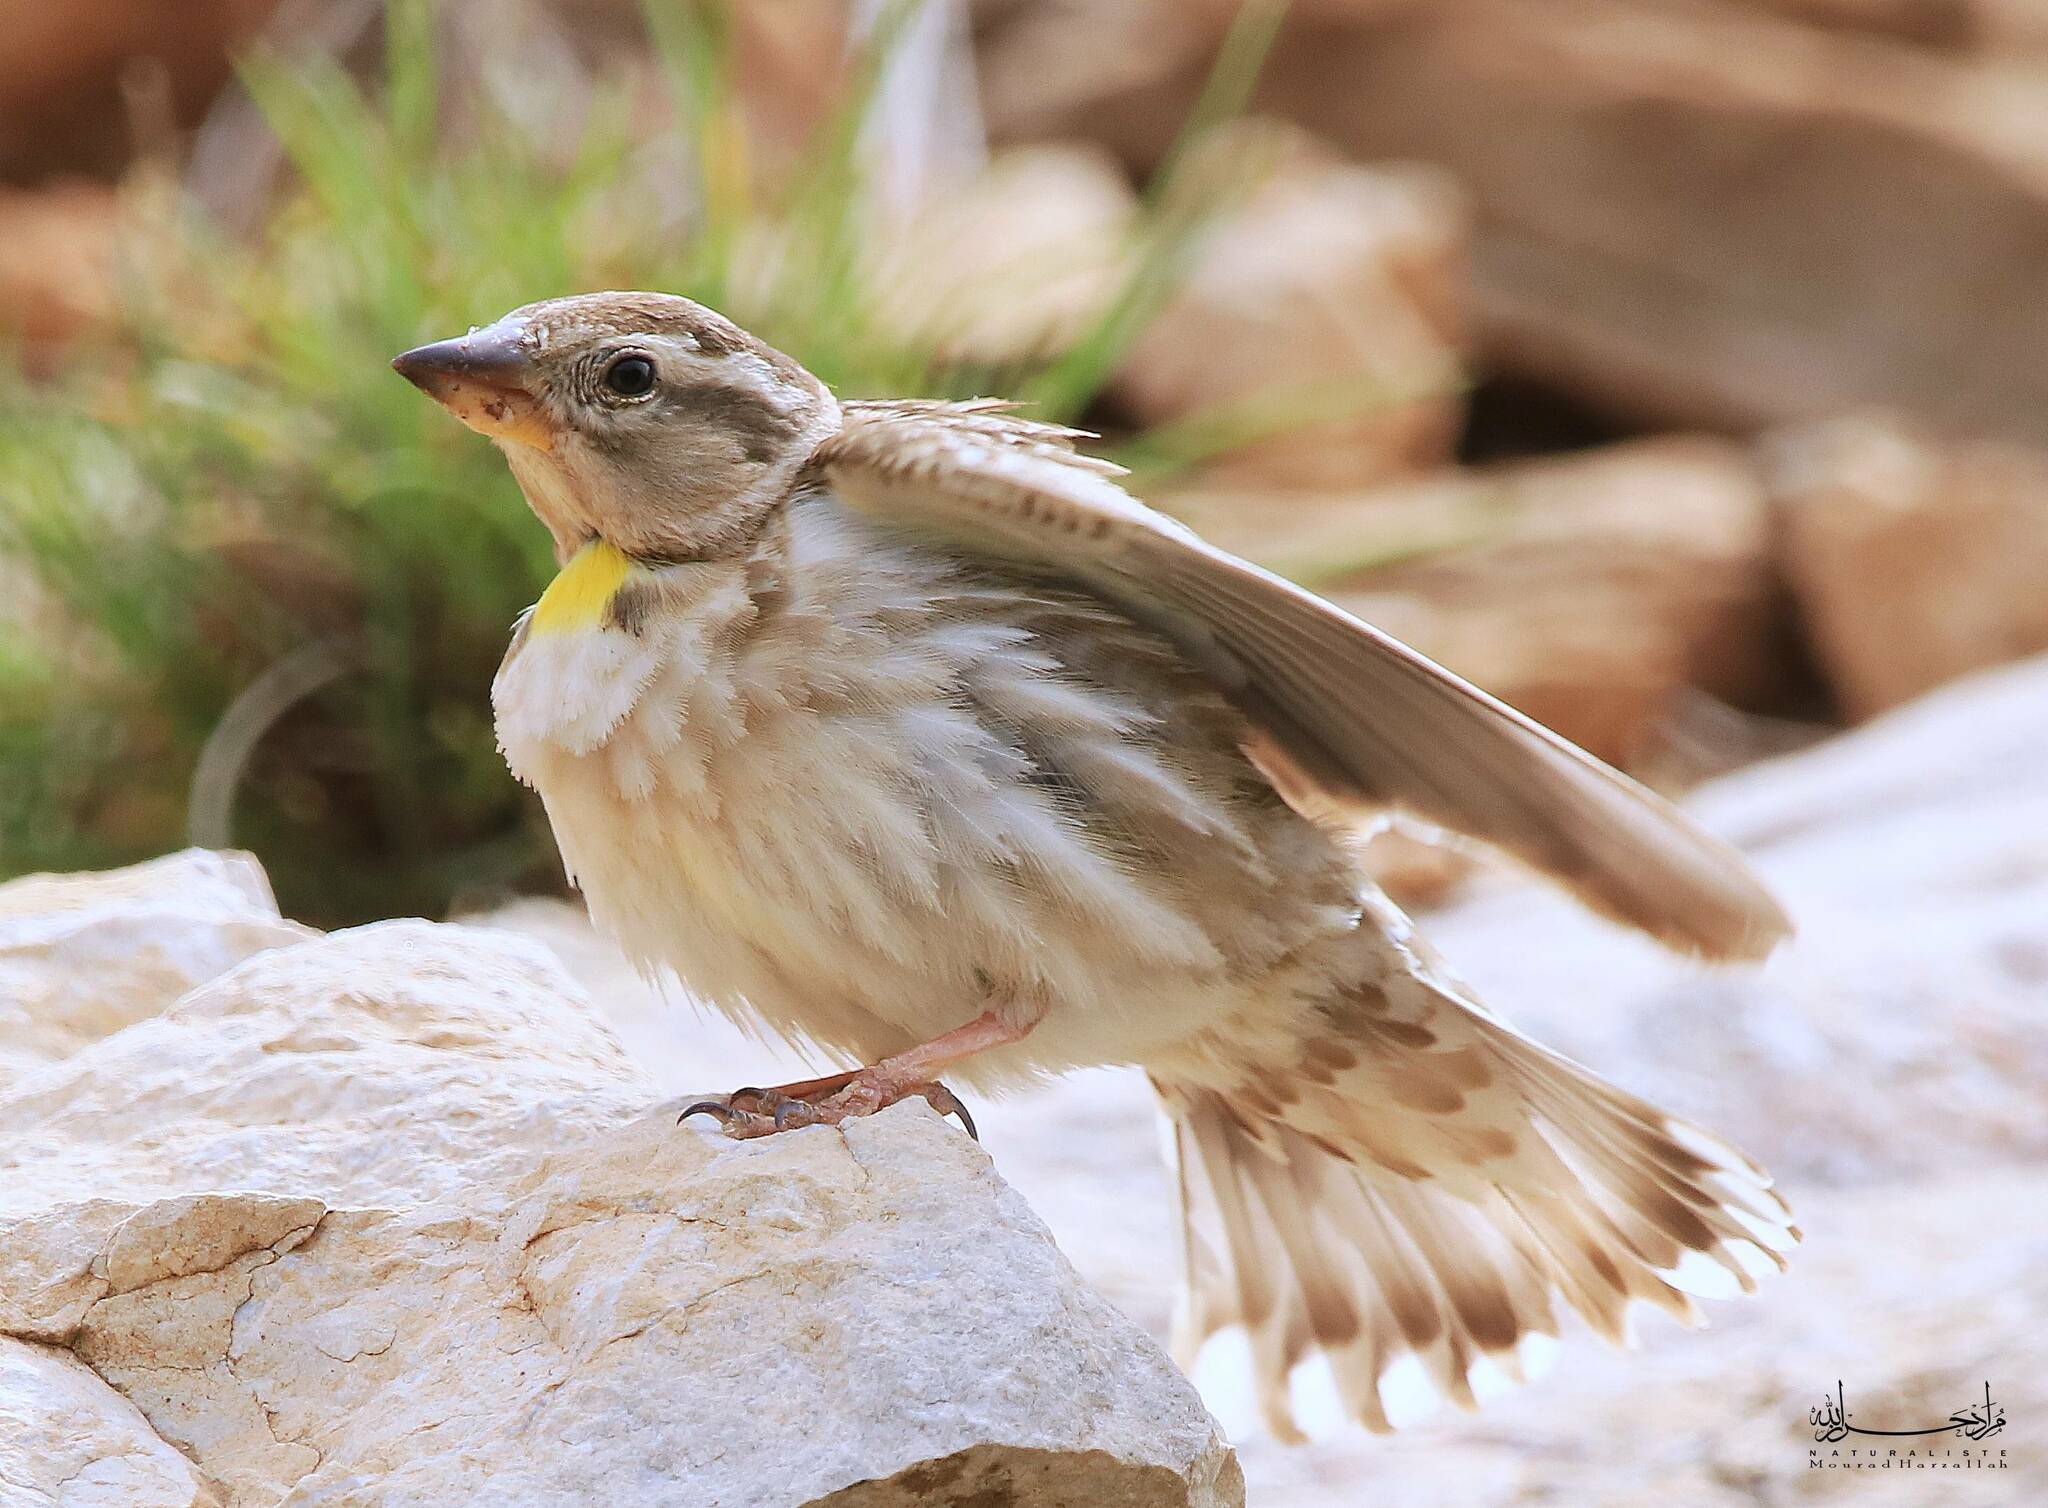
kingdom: Animalia
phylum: Chordata
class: Aves
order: Passeriformes
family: Passeridae
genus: Petronia
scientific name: Petronia petronia
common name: Rock sparrow
